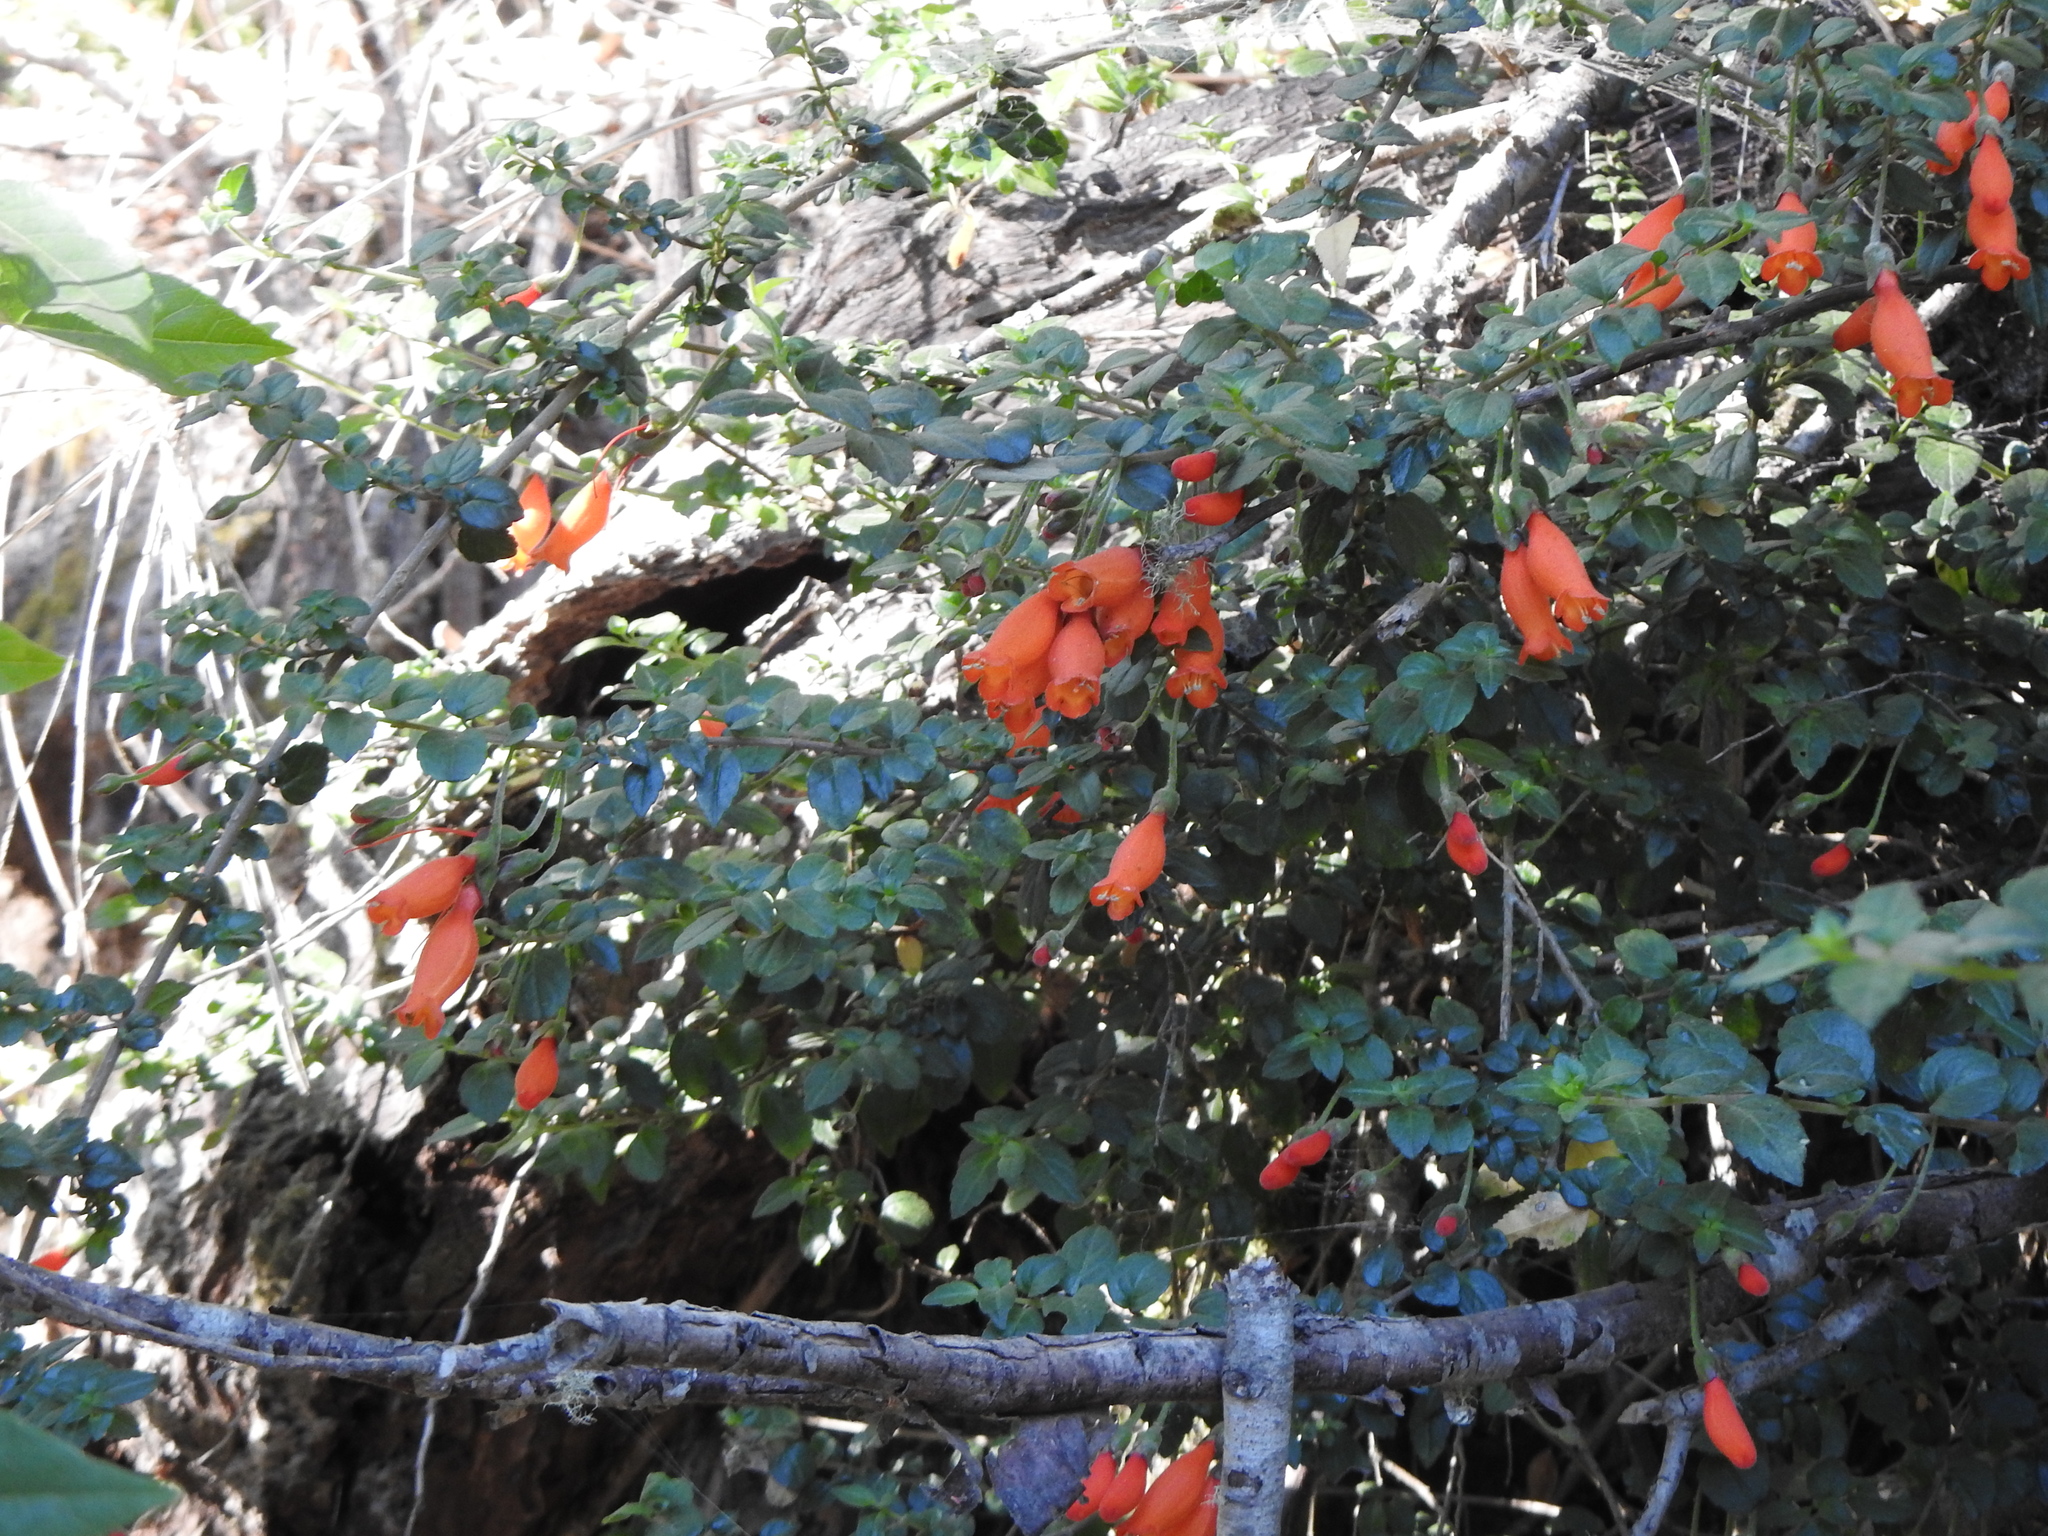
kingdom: Plantae
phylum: Tracheophyta
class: Magnoliopsida
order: Lamiales
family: Gesneriaceae
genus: Mitraria
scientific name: Mitraria coccinea
